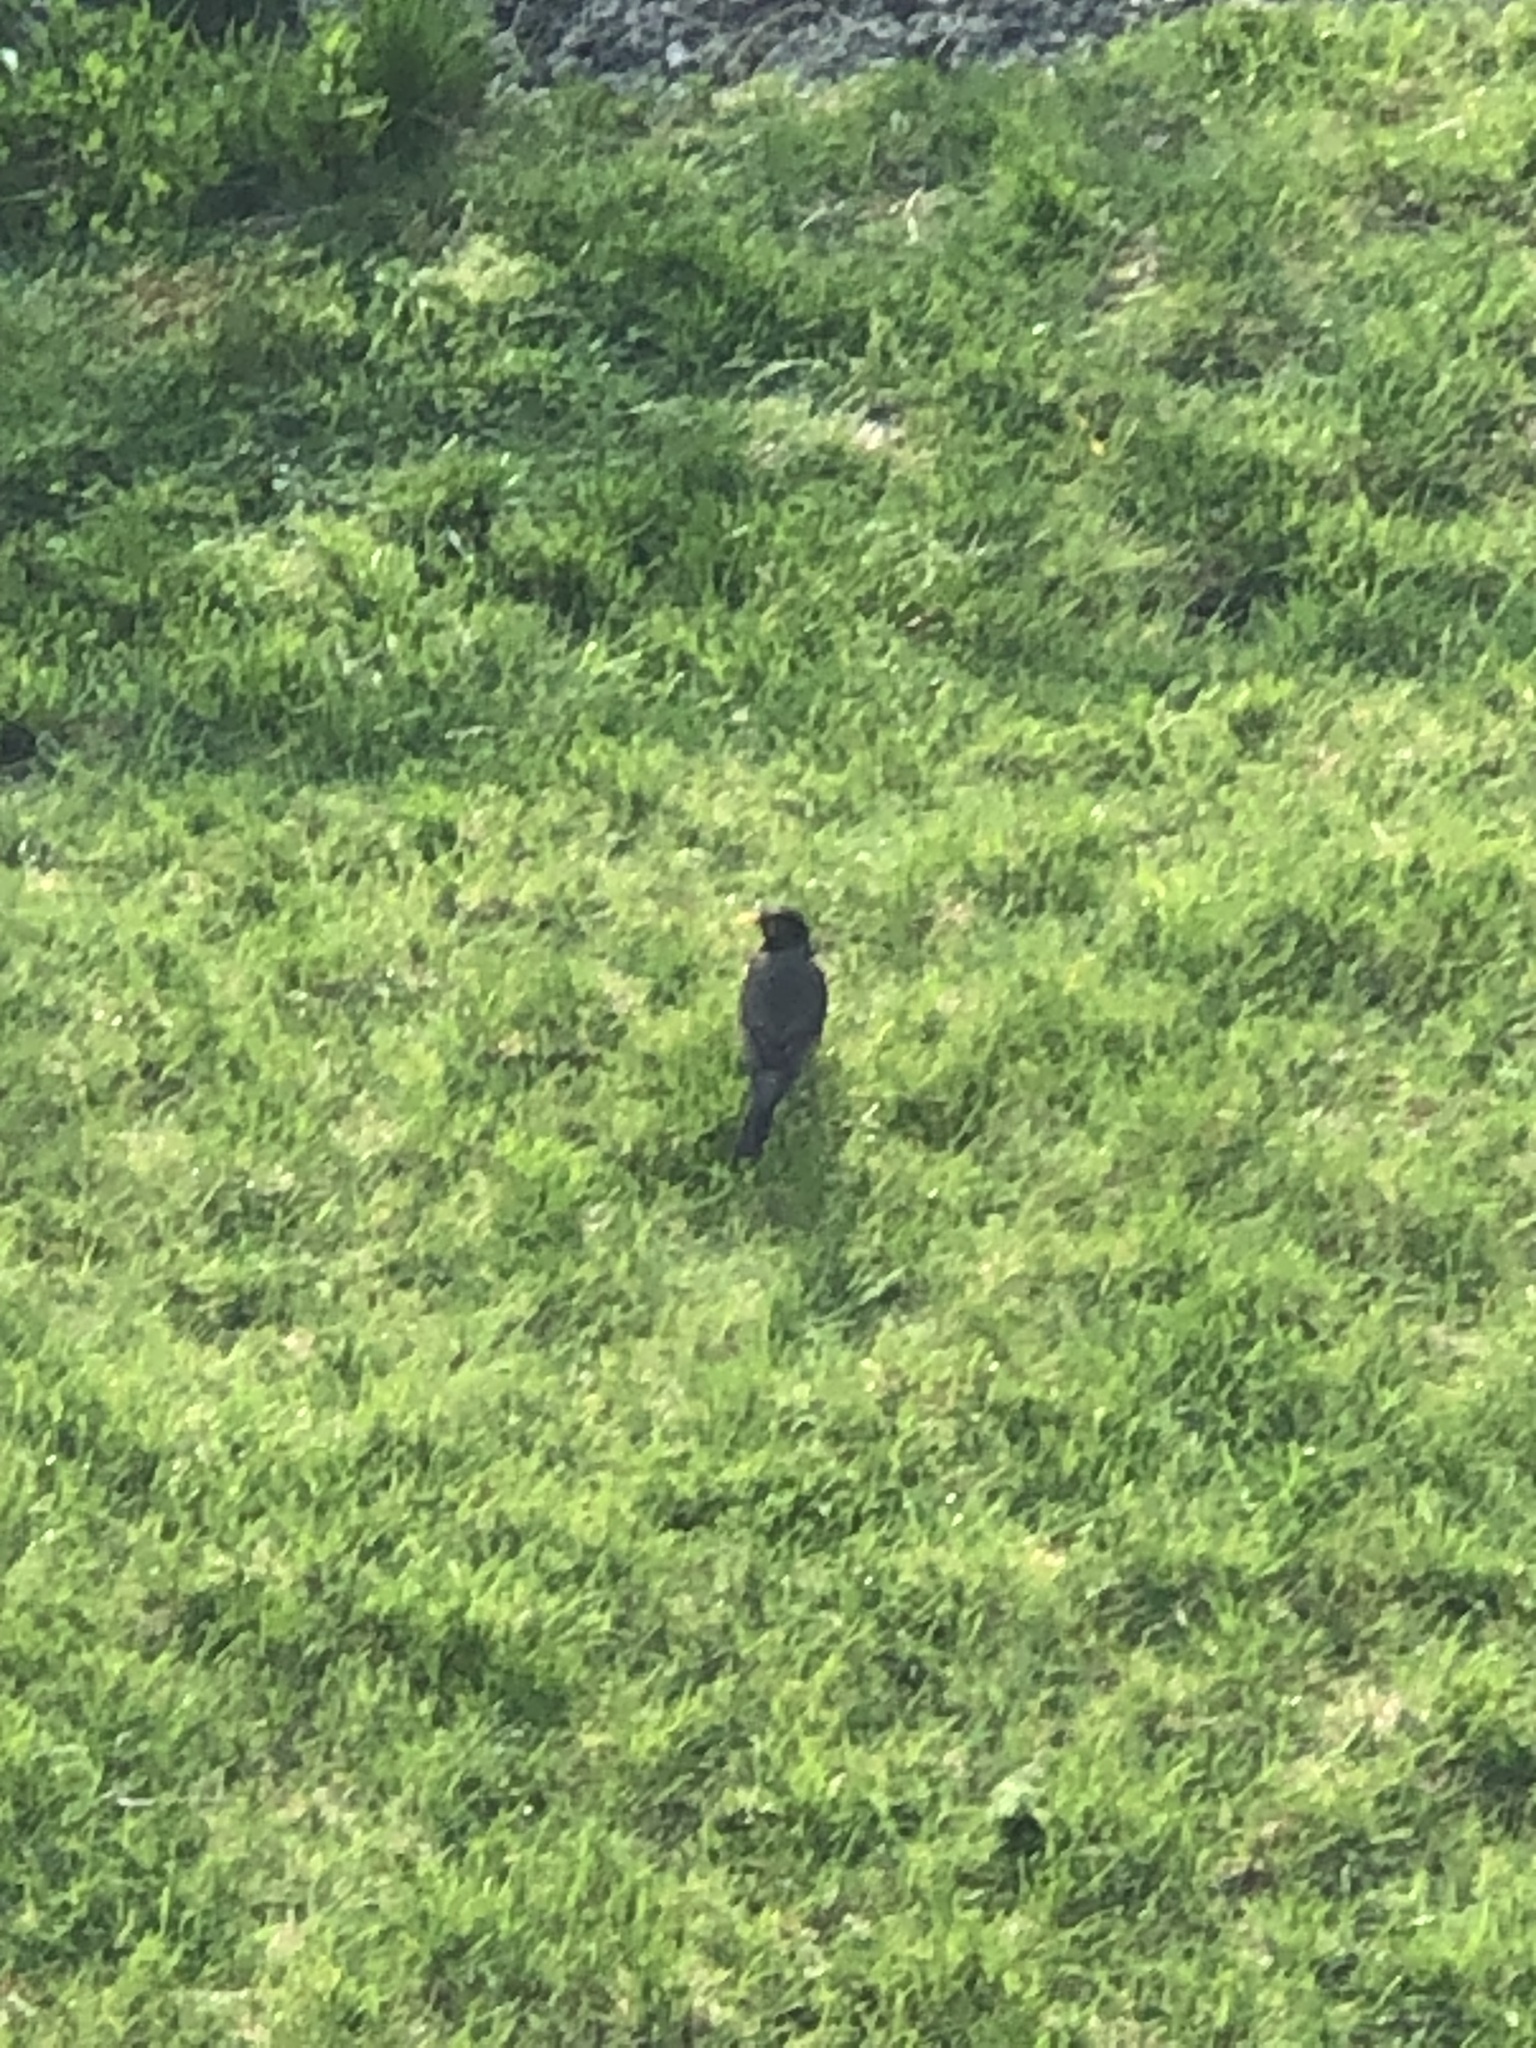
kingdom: Animalia
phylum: Chordata
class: Aves
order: Passeriformes
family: Turdidae
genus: Turdus
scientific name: Turdus migratorius
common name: American robin
